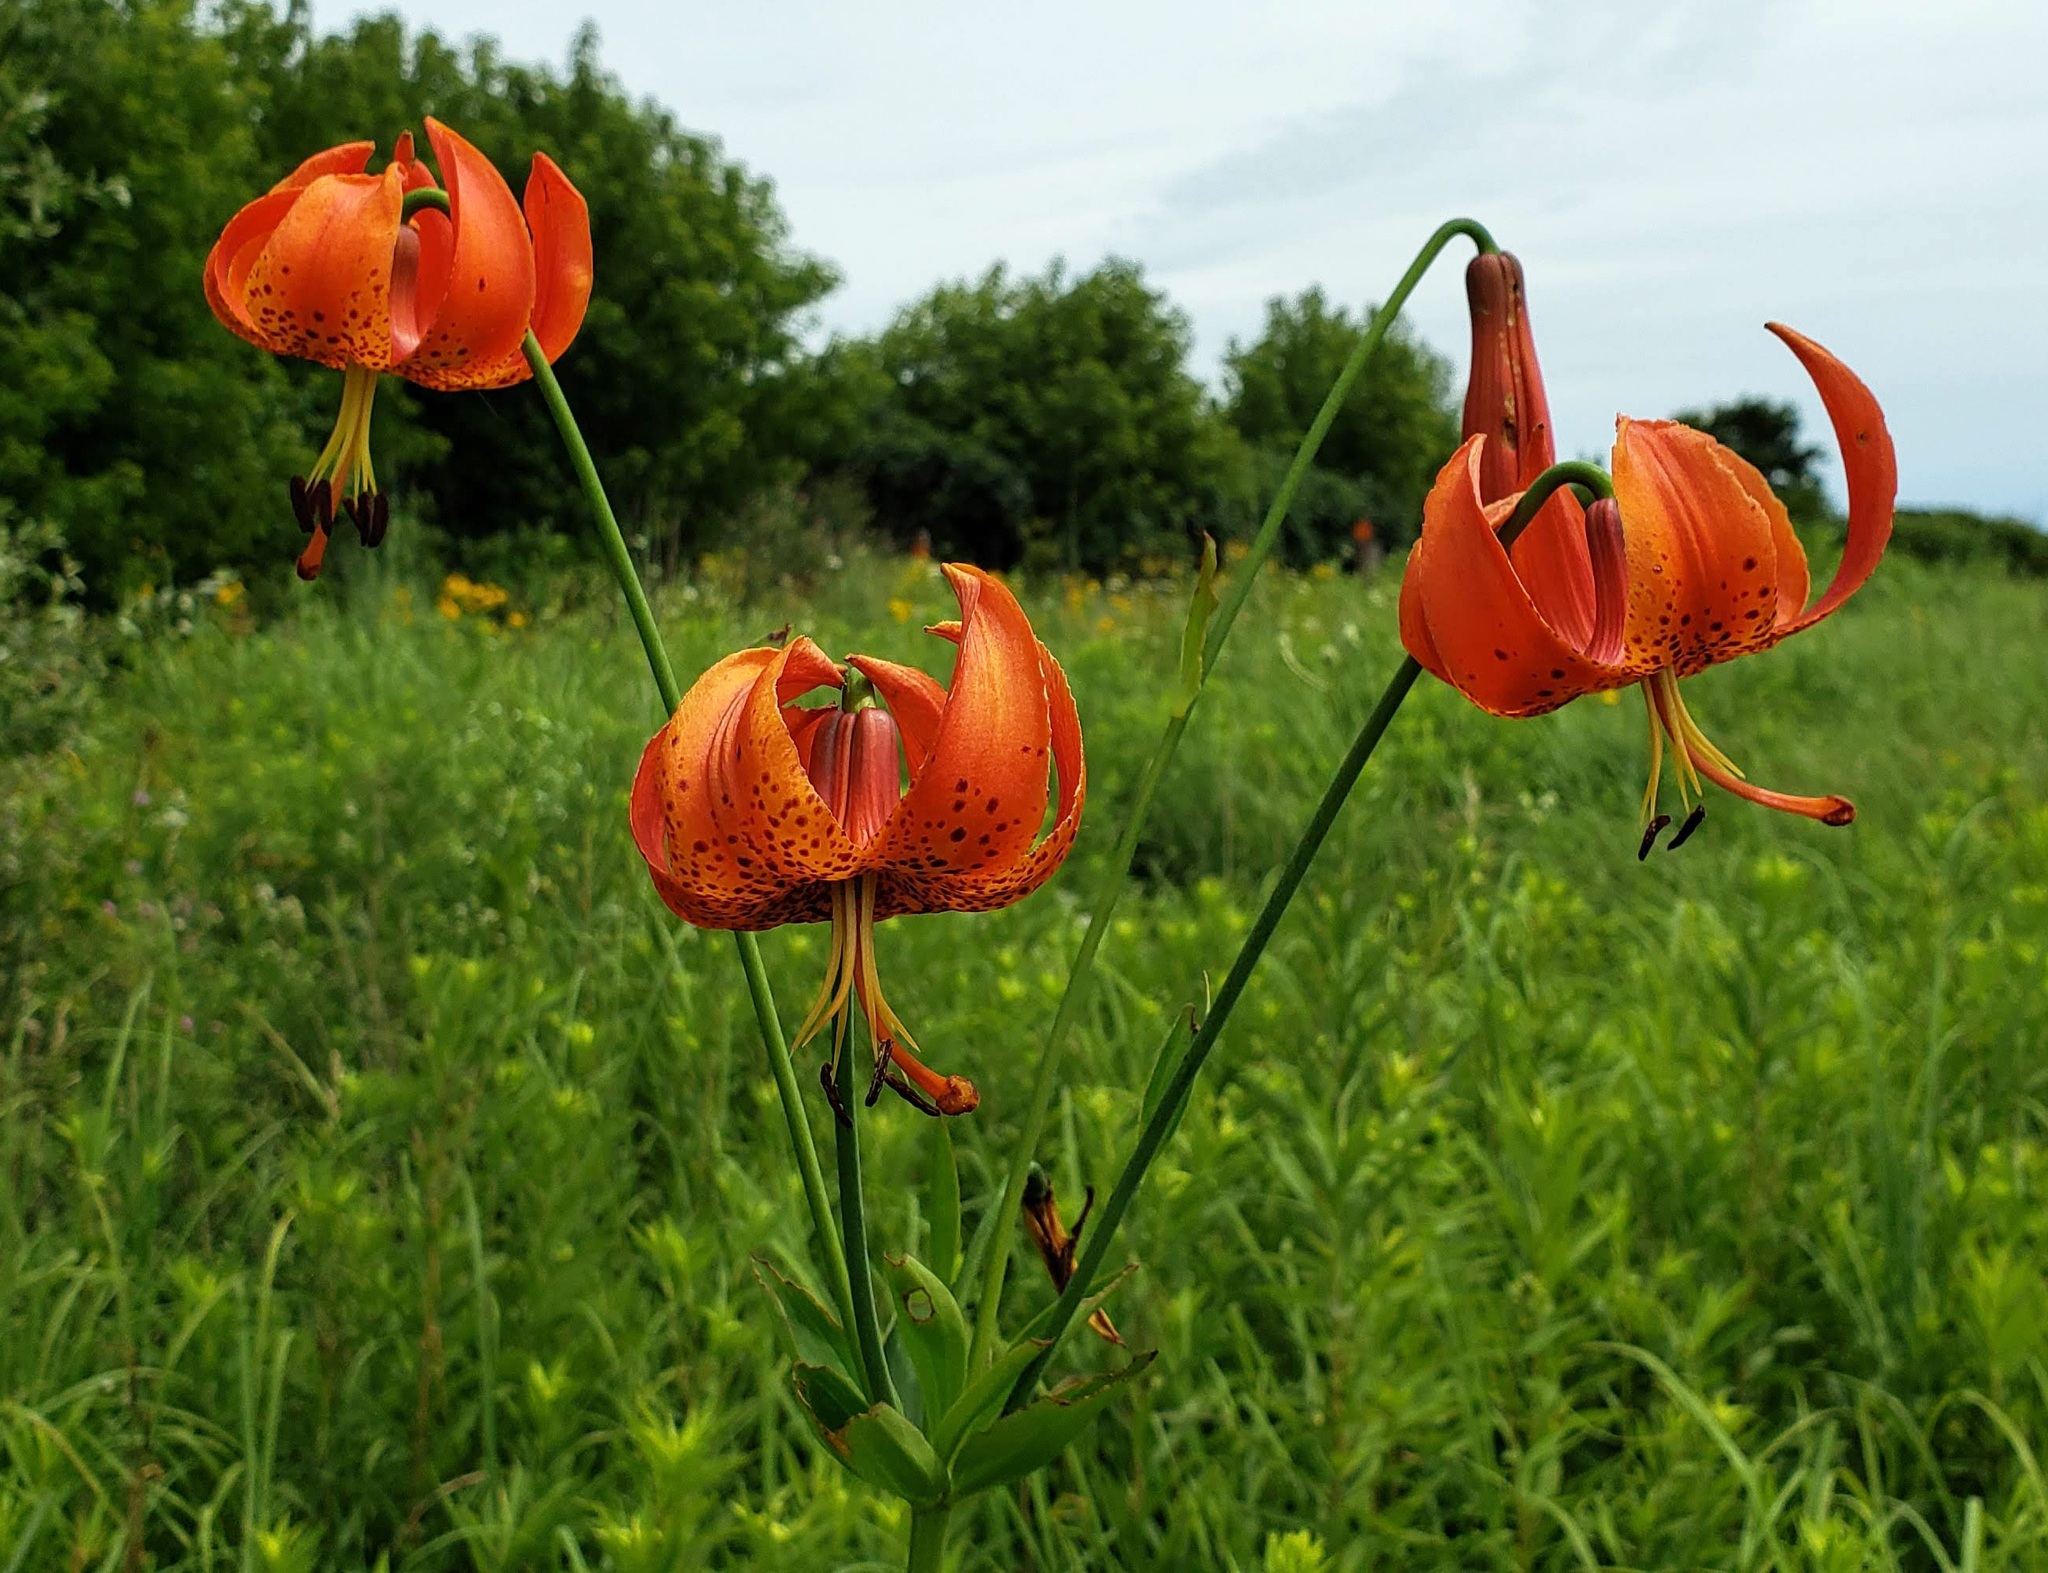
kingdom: Plantae
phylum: Tracheophyta
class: Liliopsida
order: Liliales
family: Liliaceae
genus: Lilium
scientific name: Lilium michiganense
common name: Michigan lily
